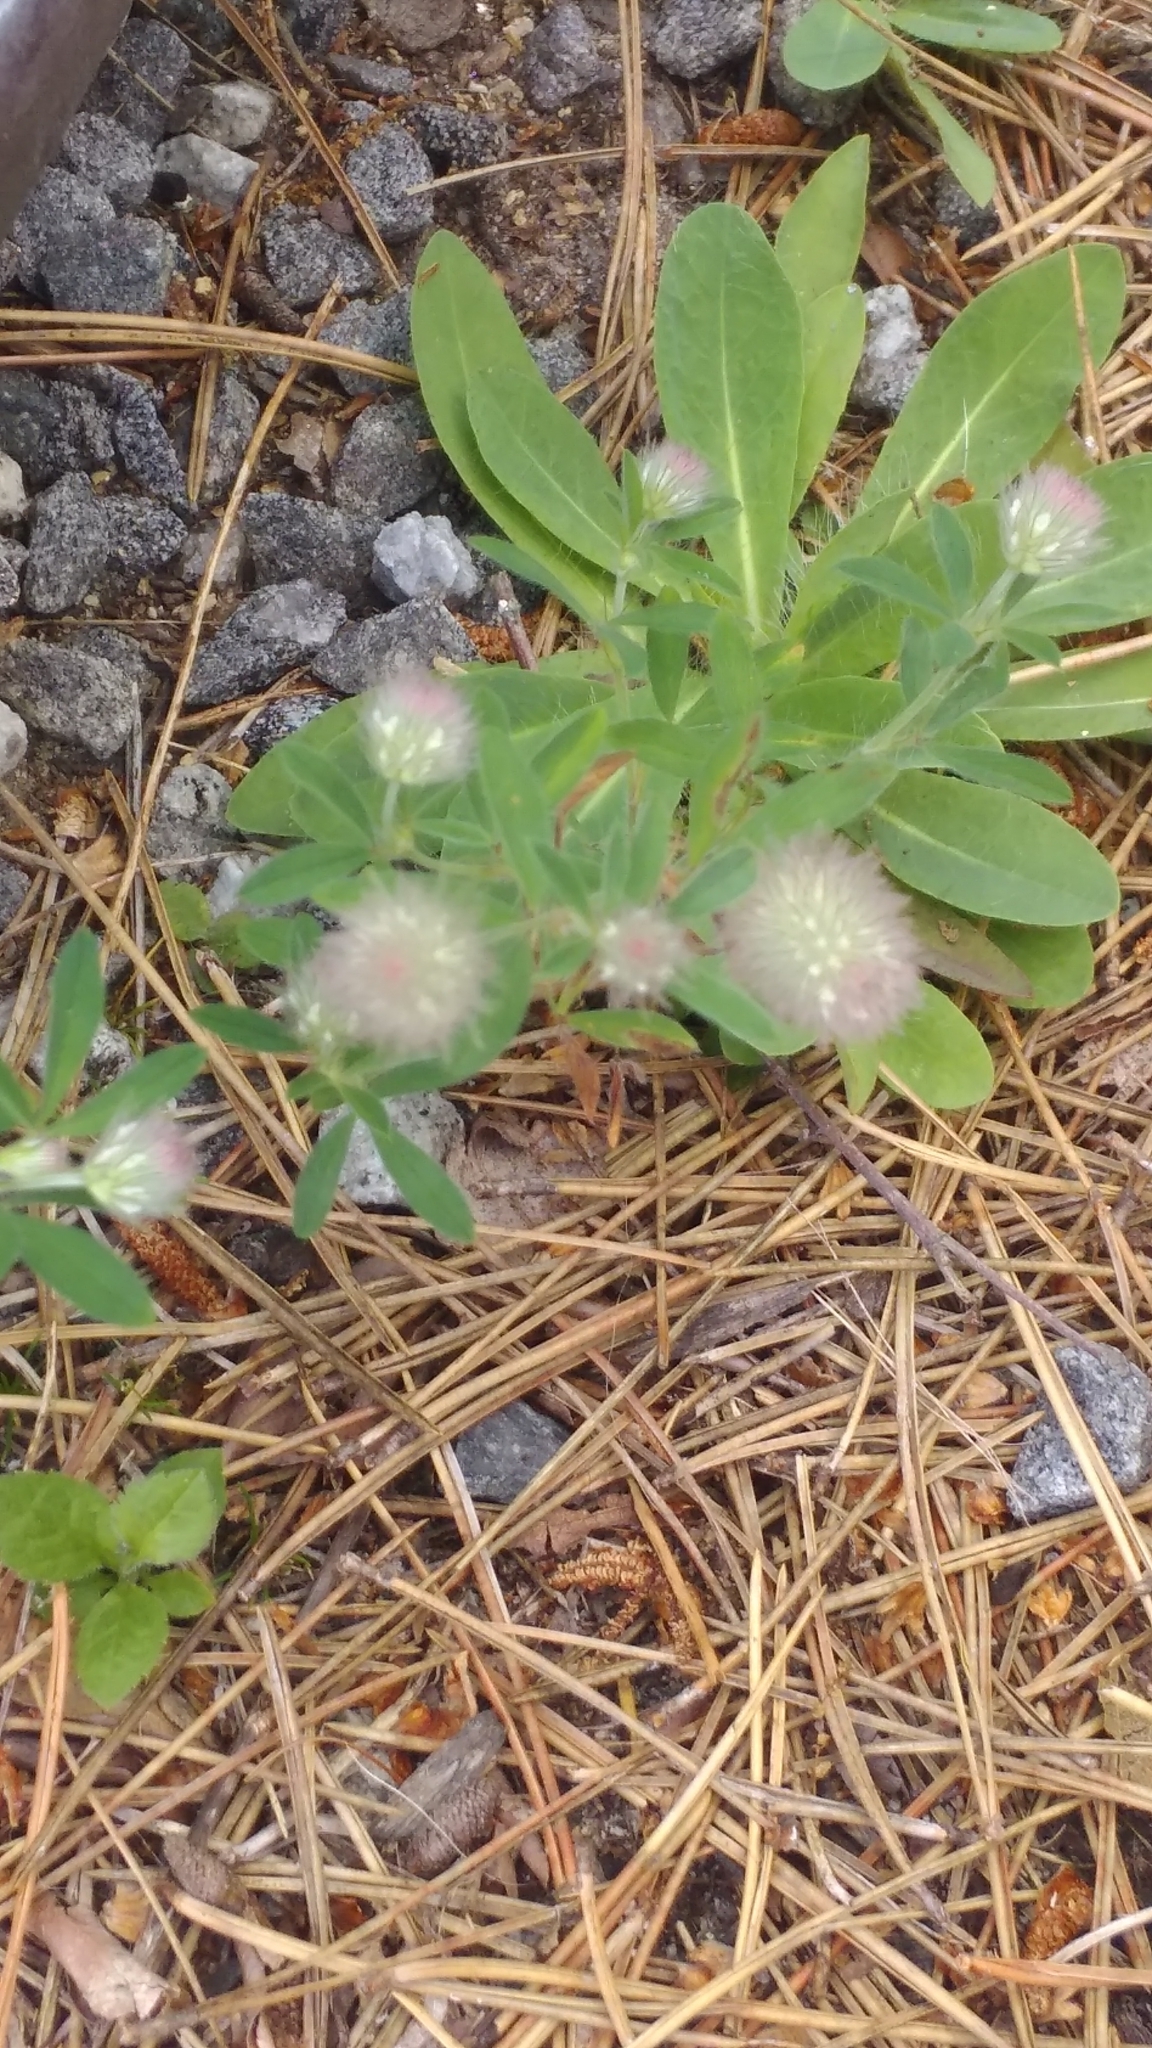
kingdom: Plantae
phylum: Tracheophyta
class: Magnoliopsida
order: Fabales
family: Fabaceae
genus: Trifolium
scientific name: Trifolium arvense
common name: Hare's-foot clover
